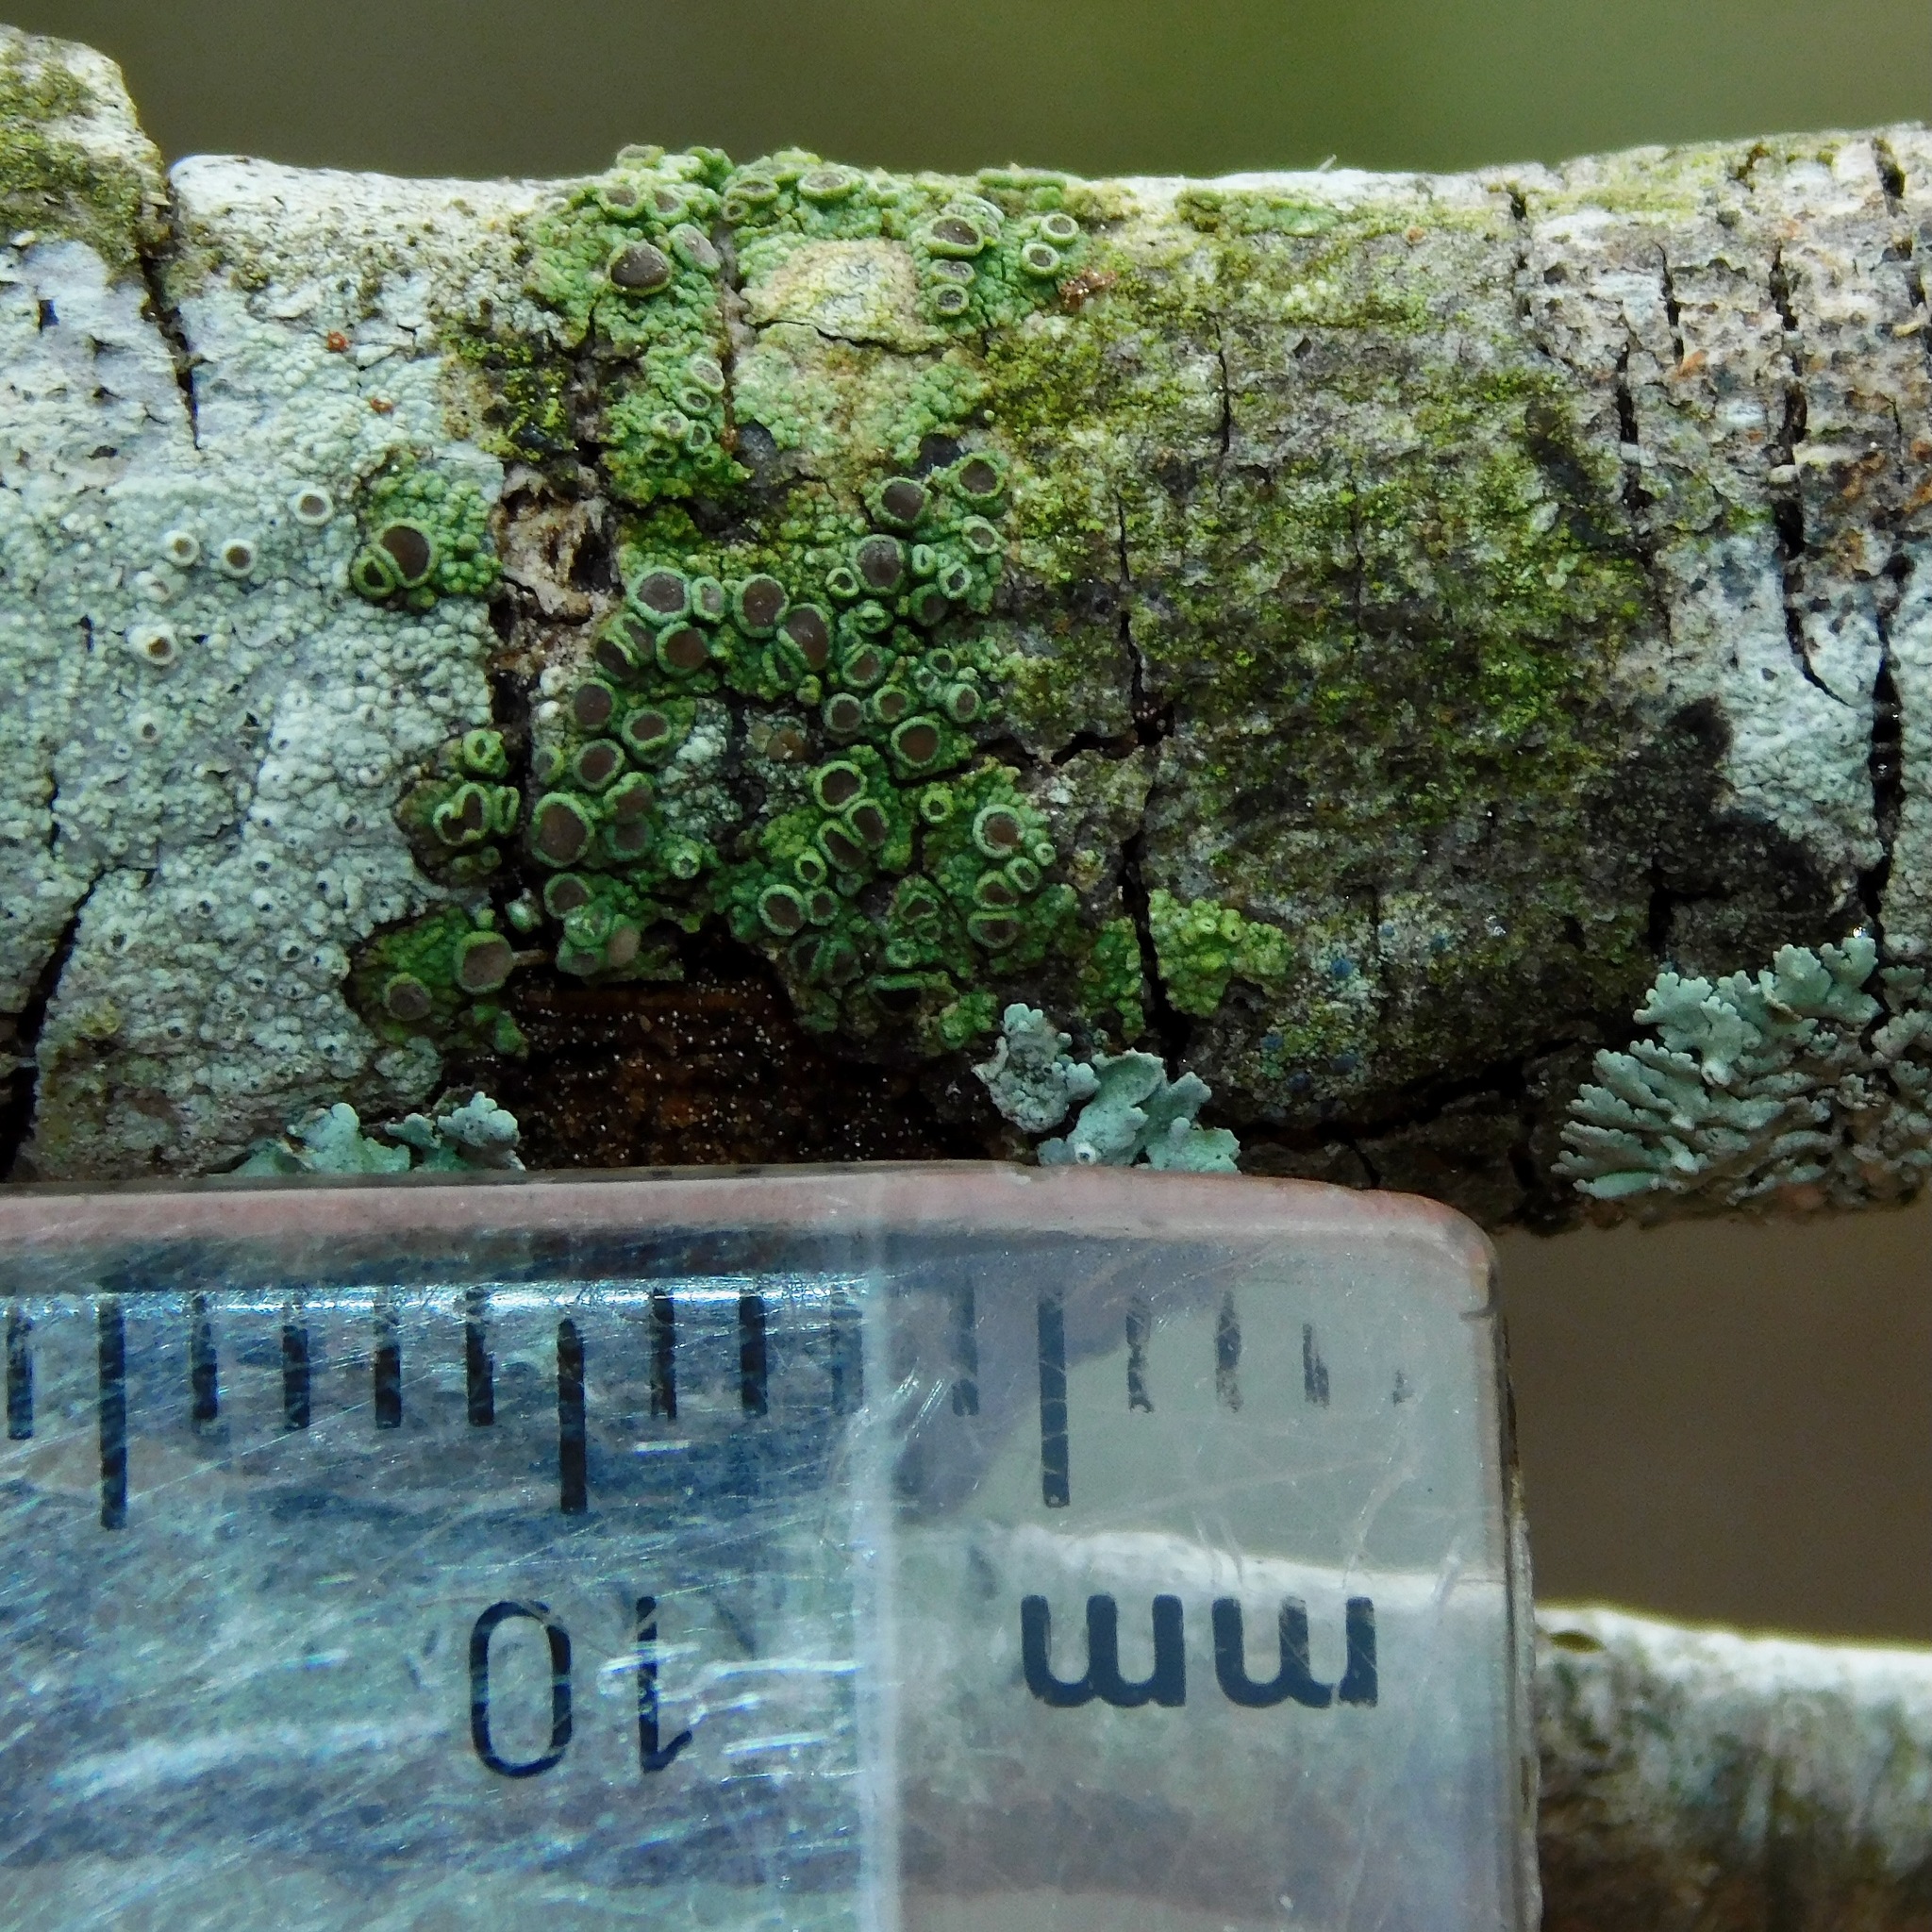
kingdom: Fungi
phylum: Ascomycota
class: Lecanoromycetes
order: Umbilicariales
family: Fuscideaceae
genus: Maronea
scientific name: Maronea polyphaea
